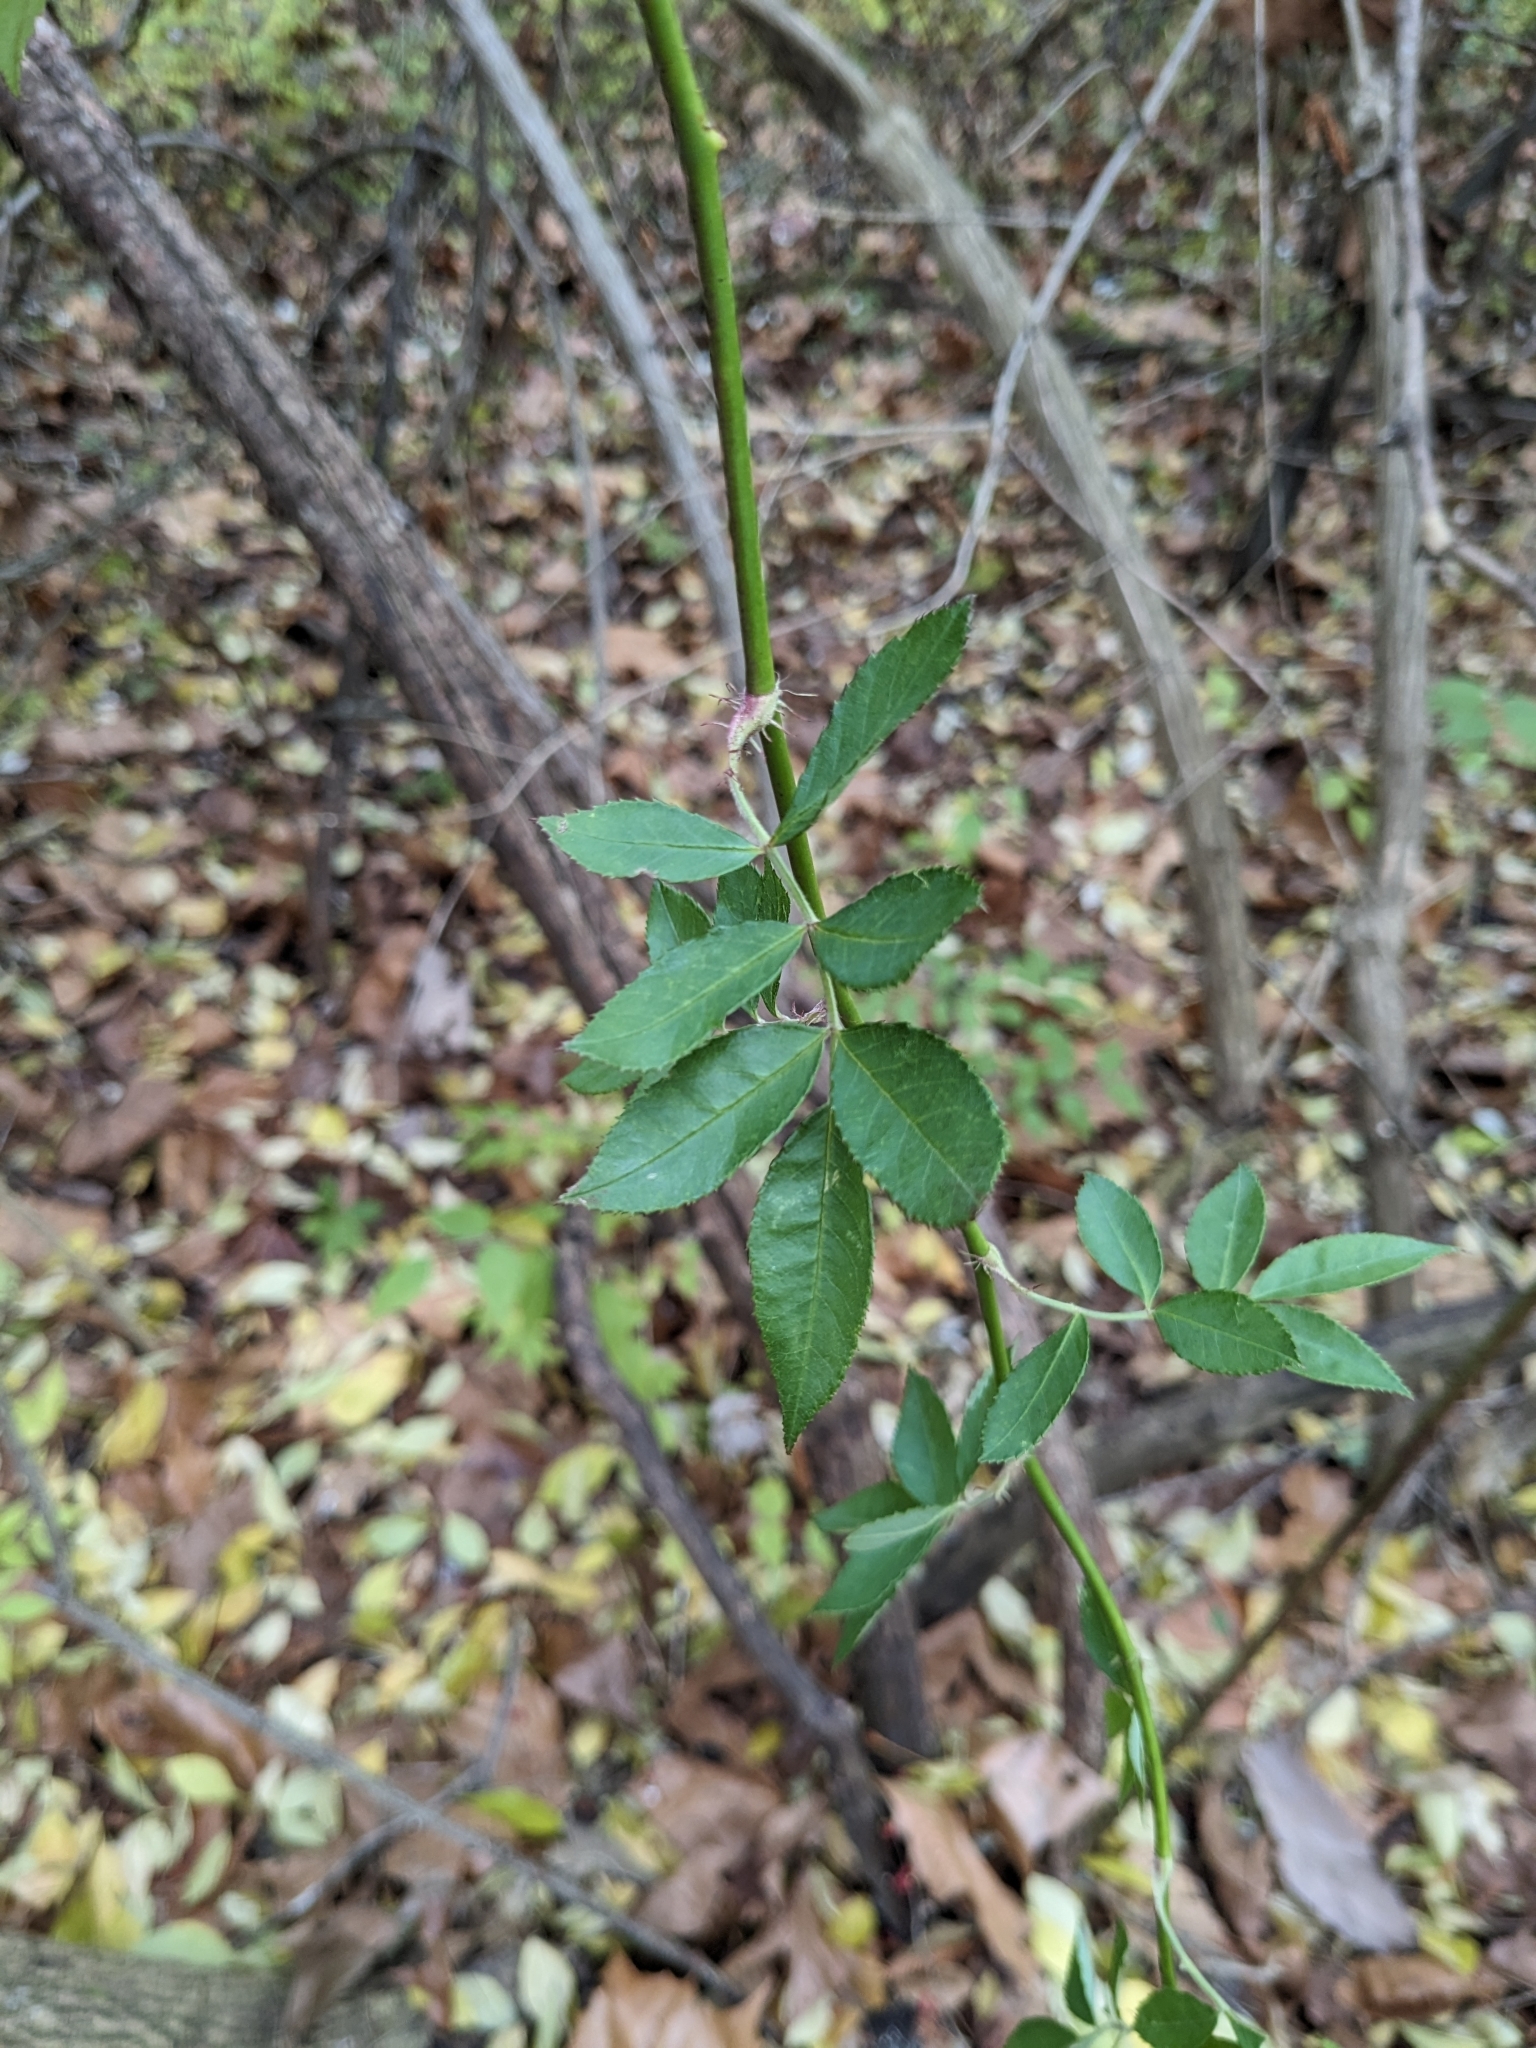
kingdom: Plantae
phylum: Tracheophyta
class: Magnoliopsida
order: Rosales
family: Rosaceae
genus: Rosa
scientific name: Rosa multiflora
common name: Multiflora rose
